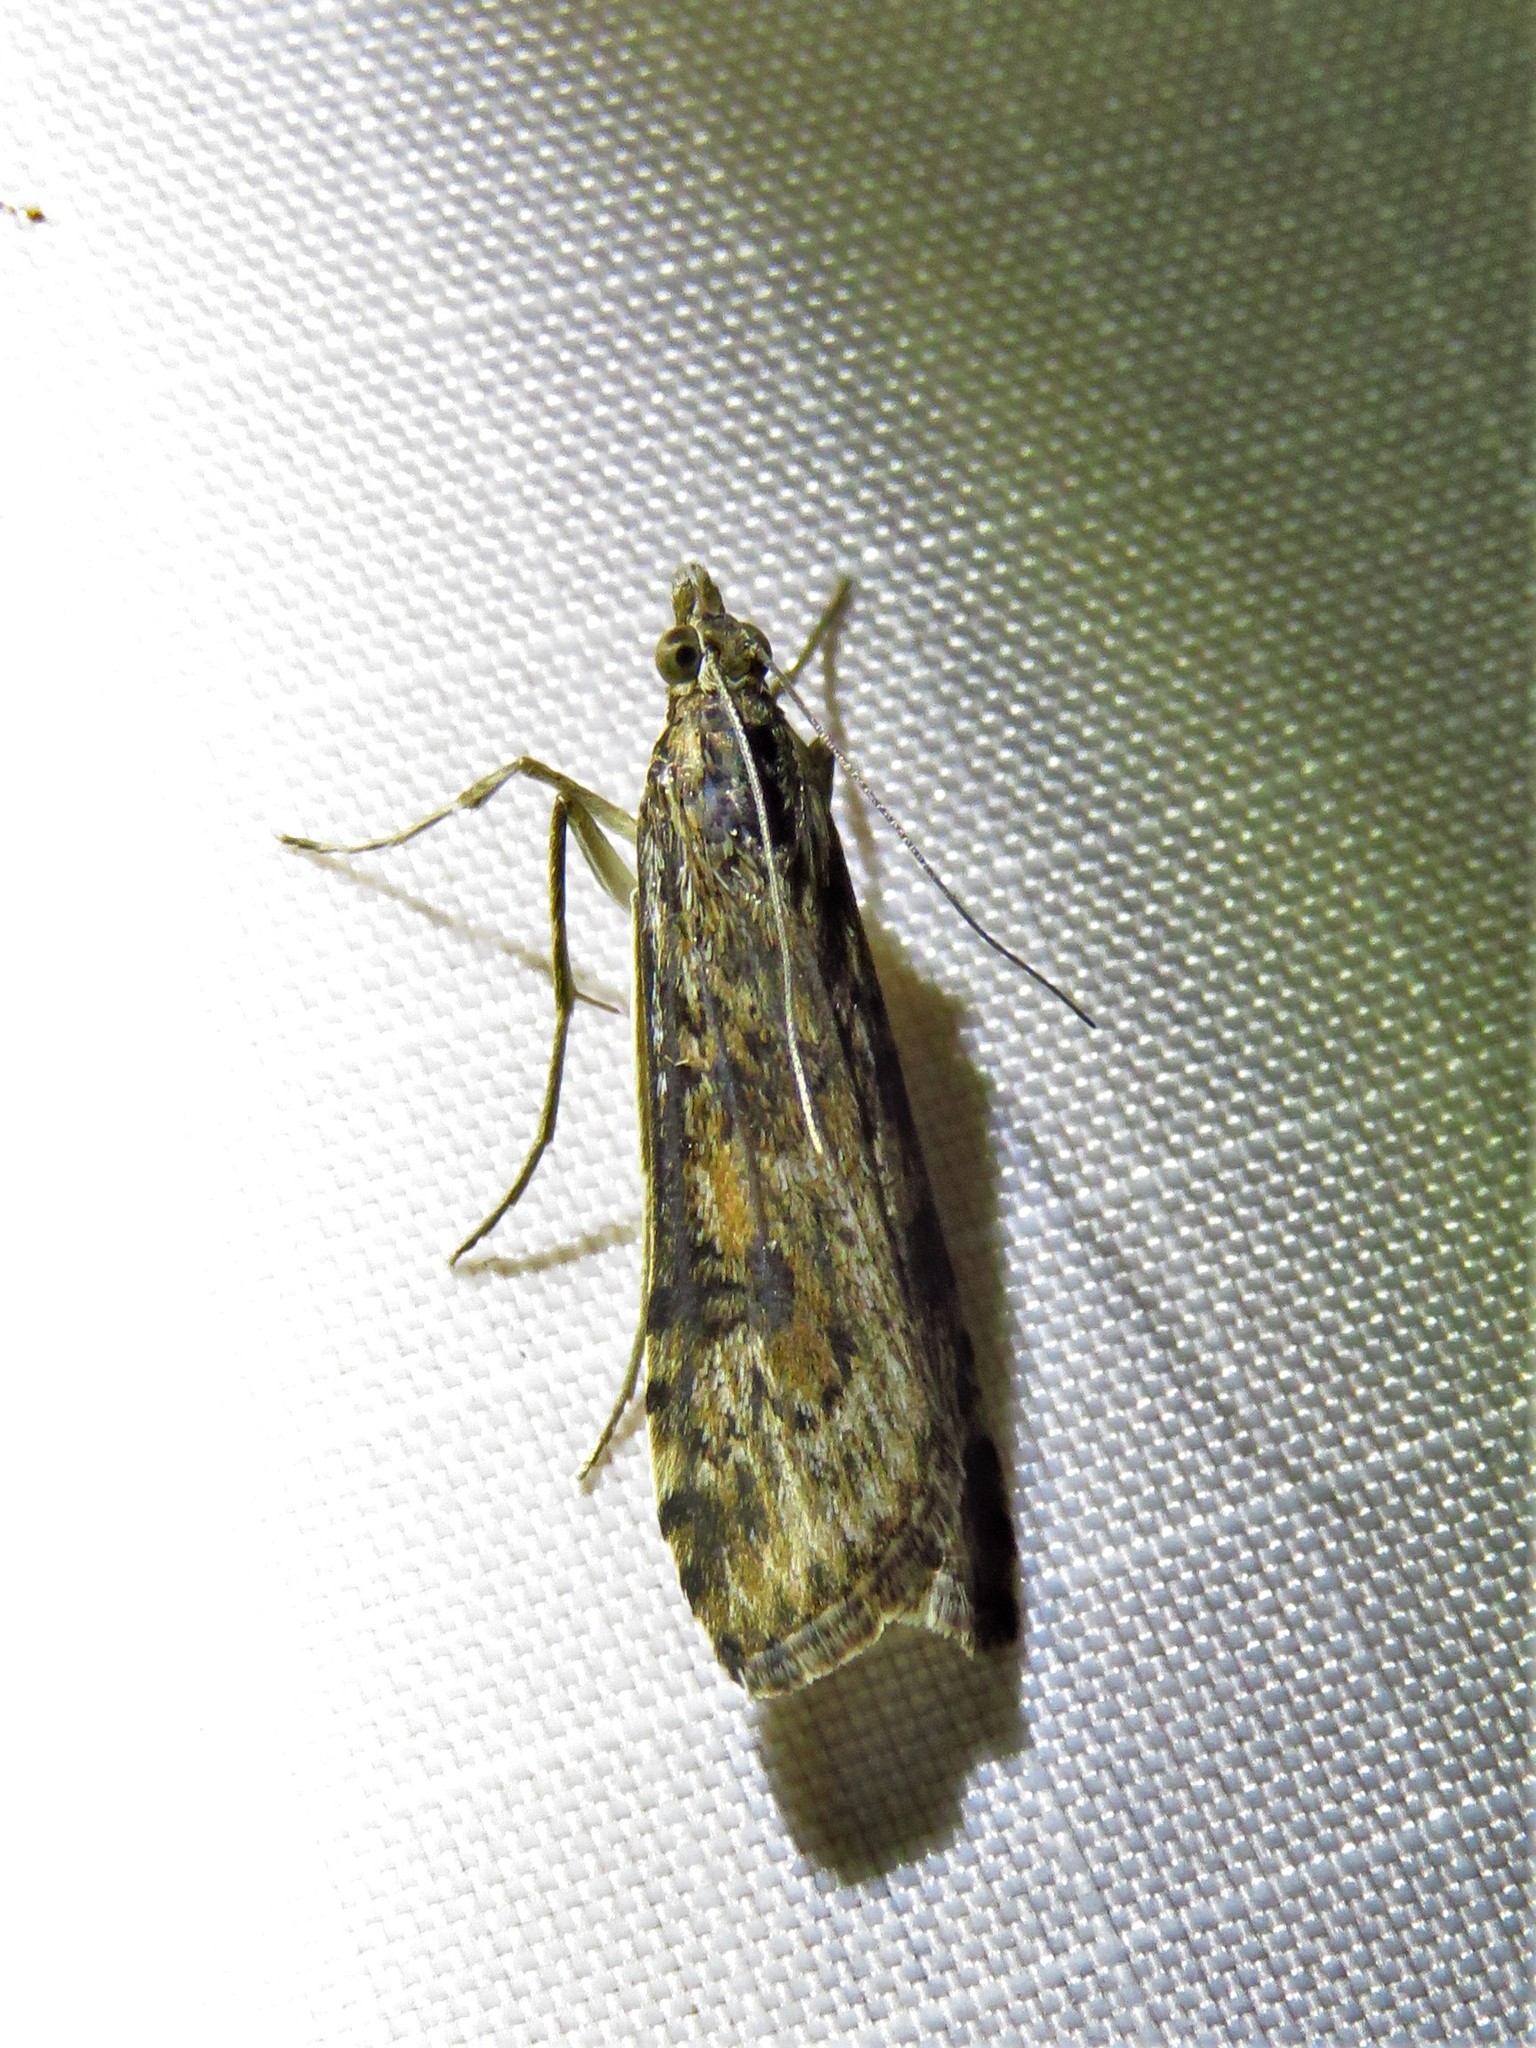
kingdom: Animalia
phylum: Arthropoda
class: Insecta
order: Lepidoptera
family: Crambidae
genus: Nomophila
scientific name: Nomophila nearctica
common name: American rush veneer
